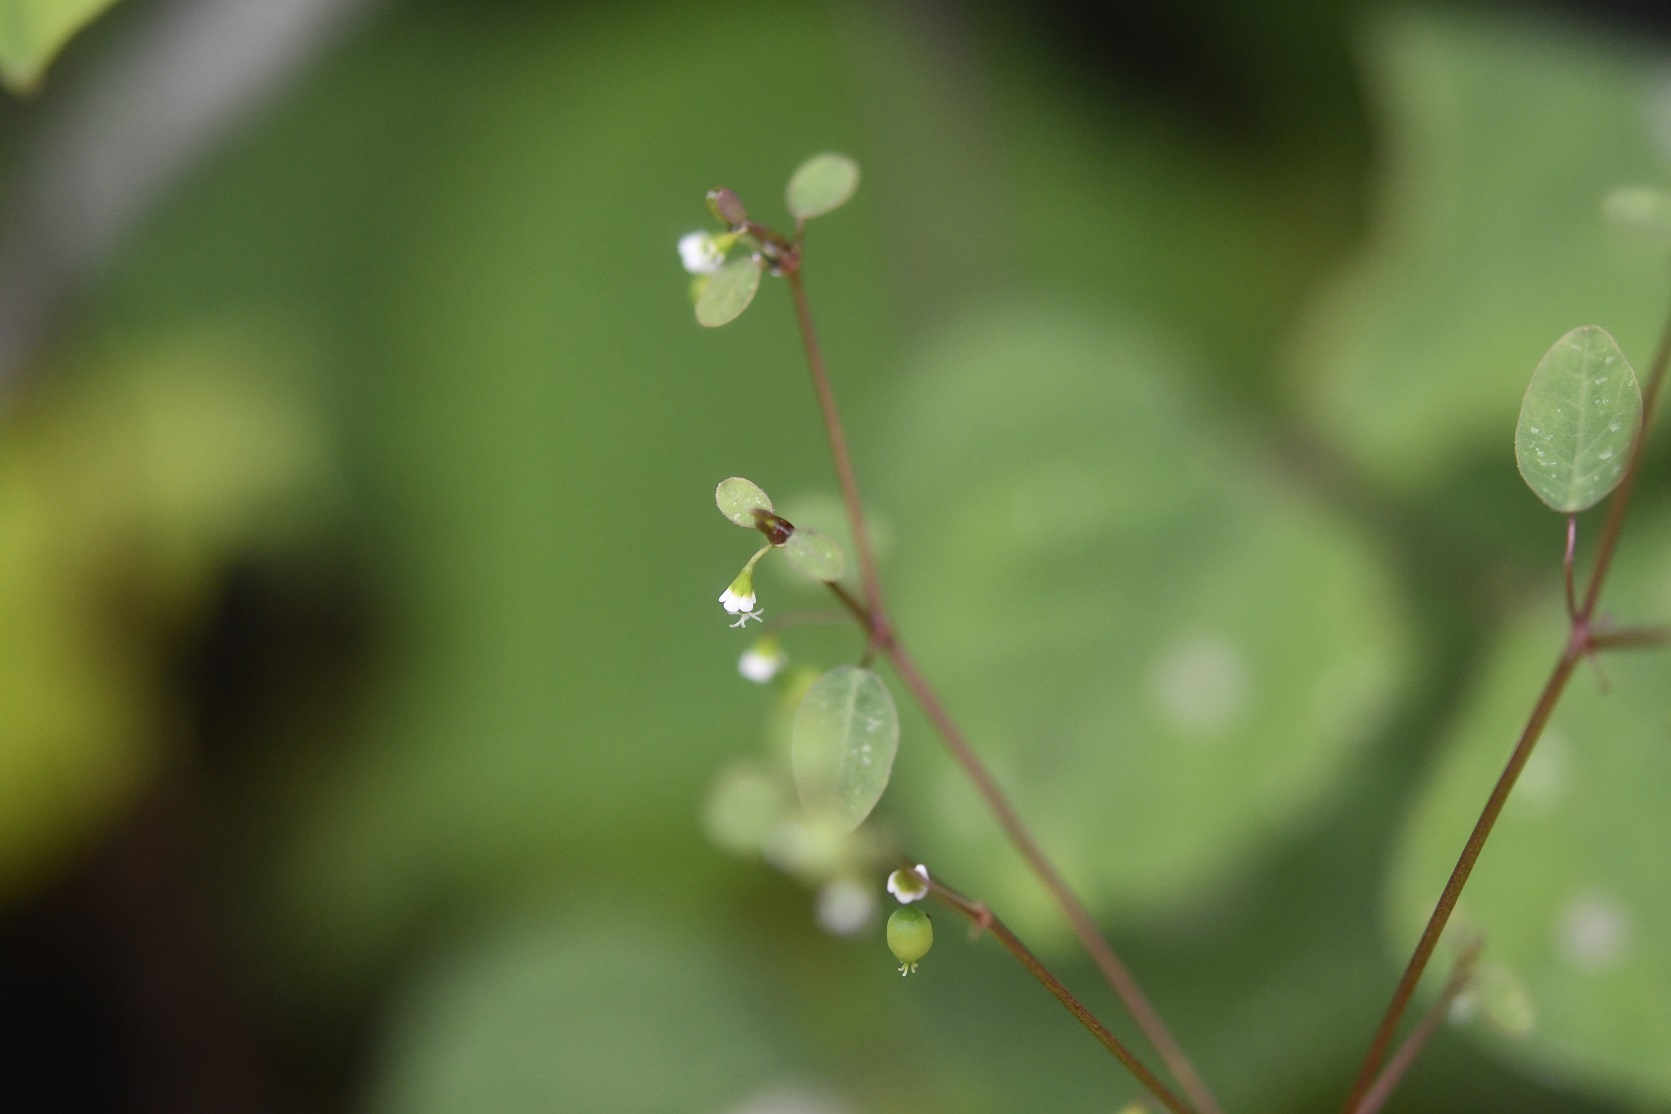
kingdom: Plantae
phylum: Tracheophyta
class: Magnoliopsida
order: Malpighiales
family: Euphorbiaceae
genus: Euphorbia
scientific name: Euphorbia delicatula
